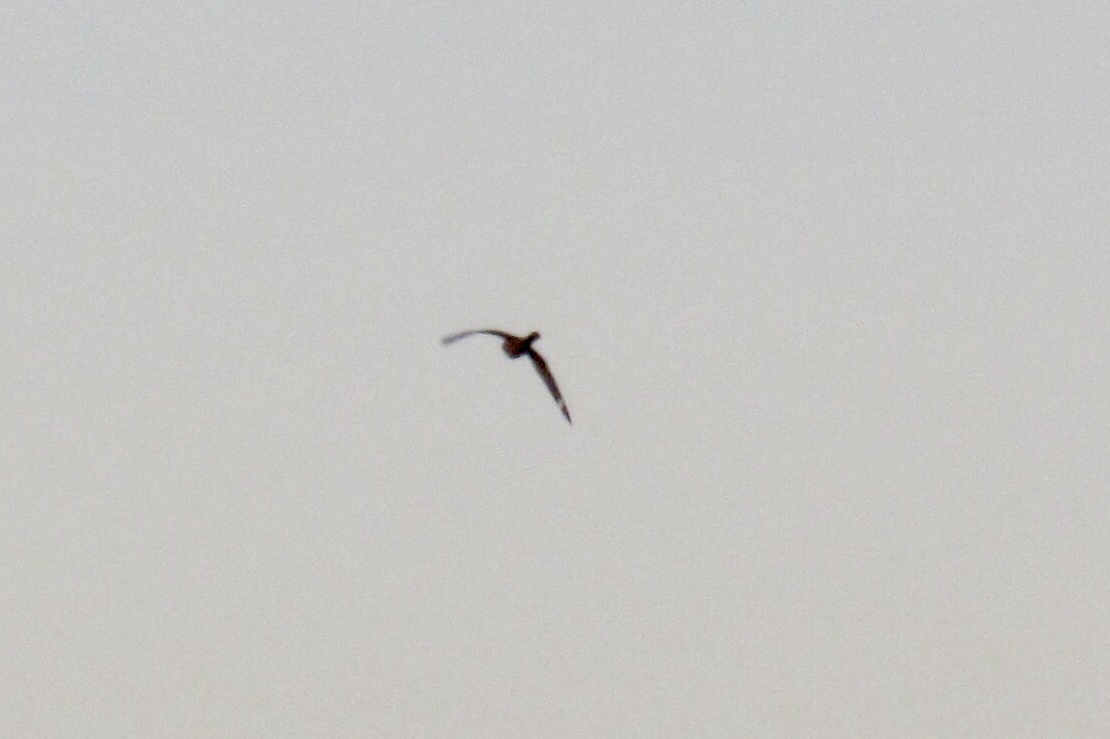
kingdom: Animalia
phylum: Chordata
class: Aves
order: Caprimulgiformes
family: Caprimulgidae
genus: Chordeiles
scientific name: Chordeiles acutipennis
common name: Lesser nighthawk
